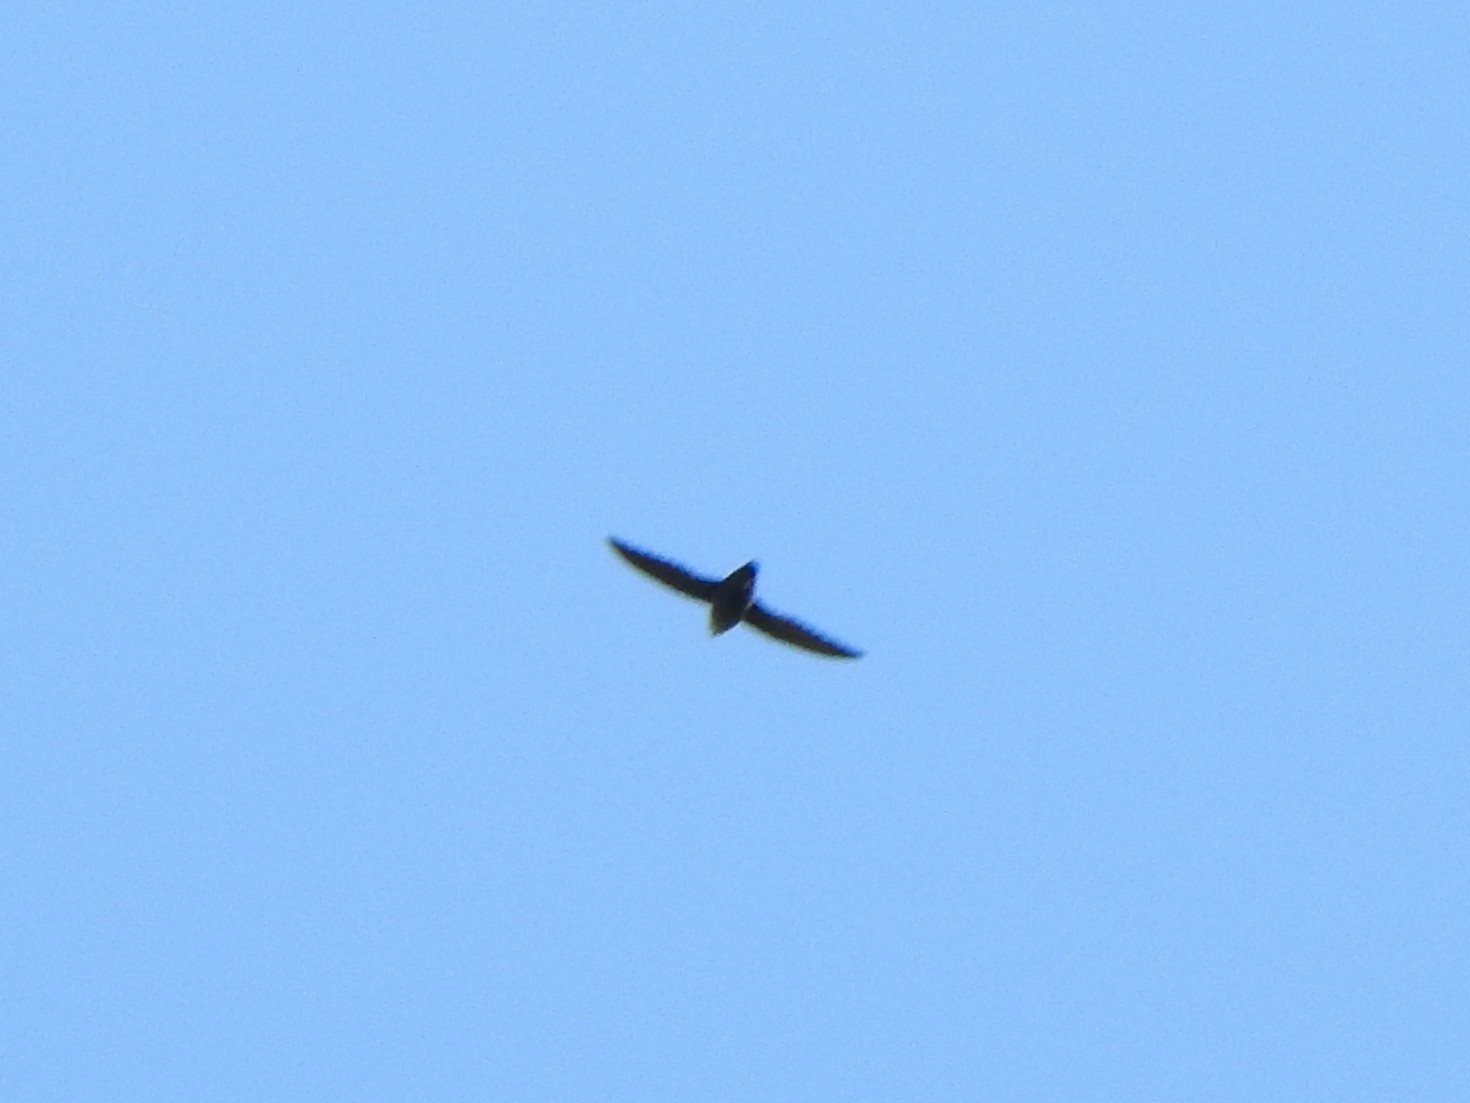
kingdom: Animalia
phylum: Chordata
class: Aves
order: Apodiformes
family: Apodidae
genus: Chaetura
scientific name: Chaetura pelagica
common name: Chimney swift
